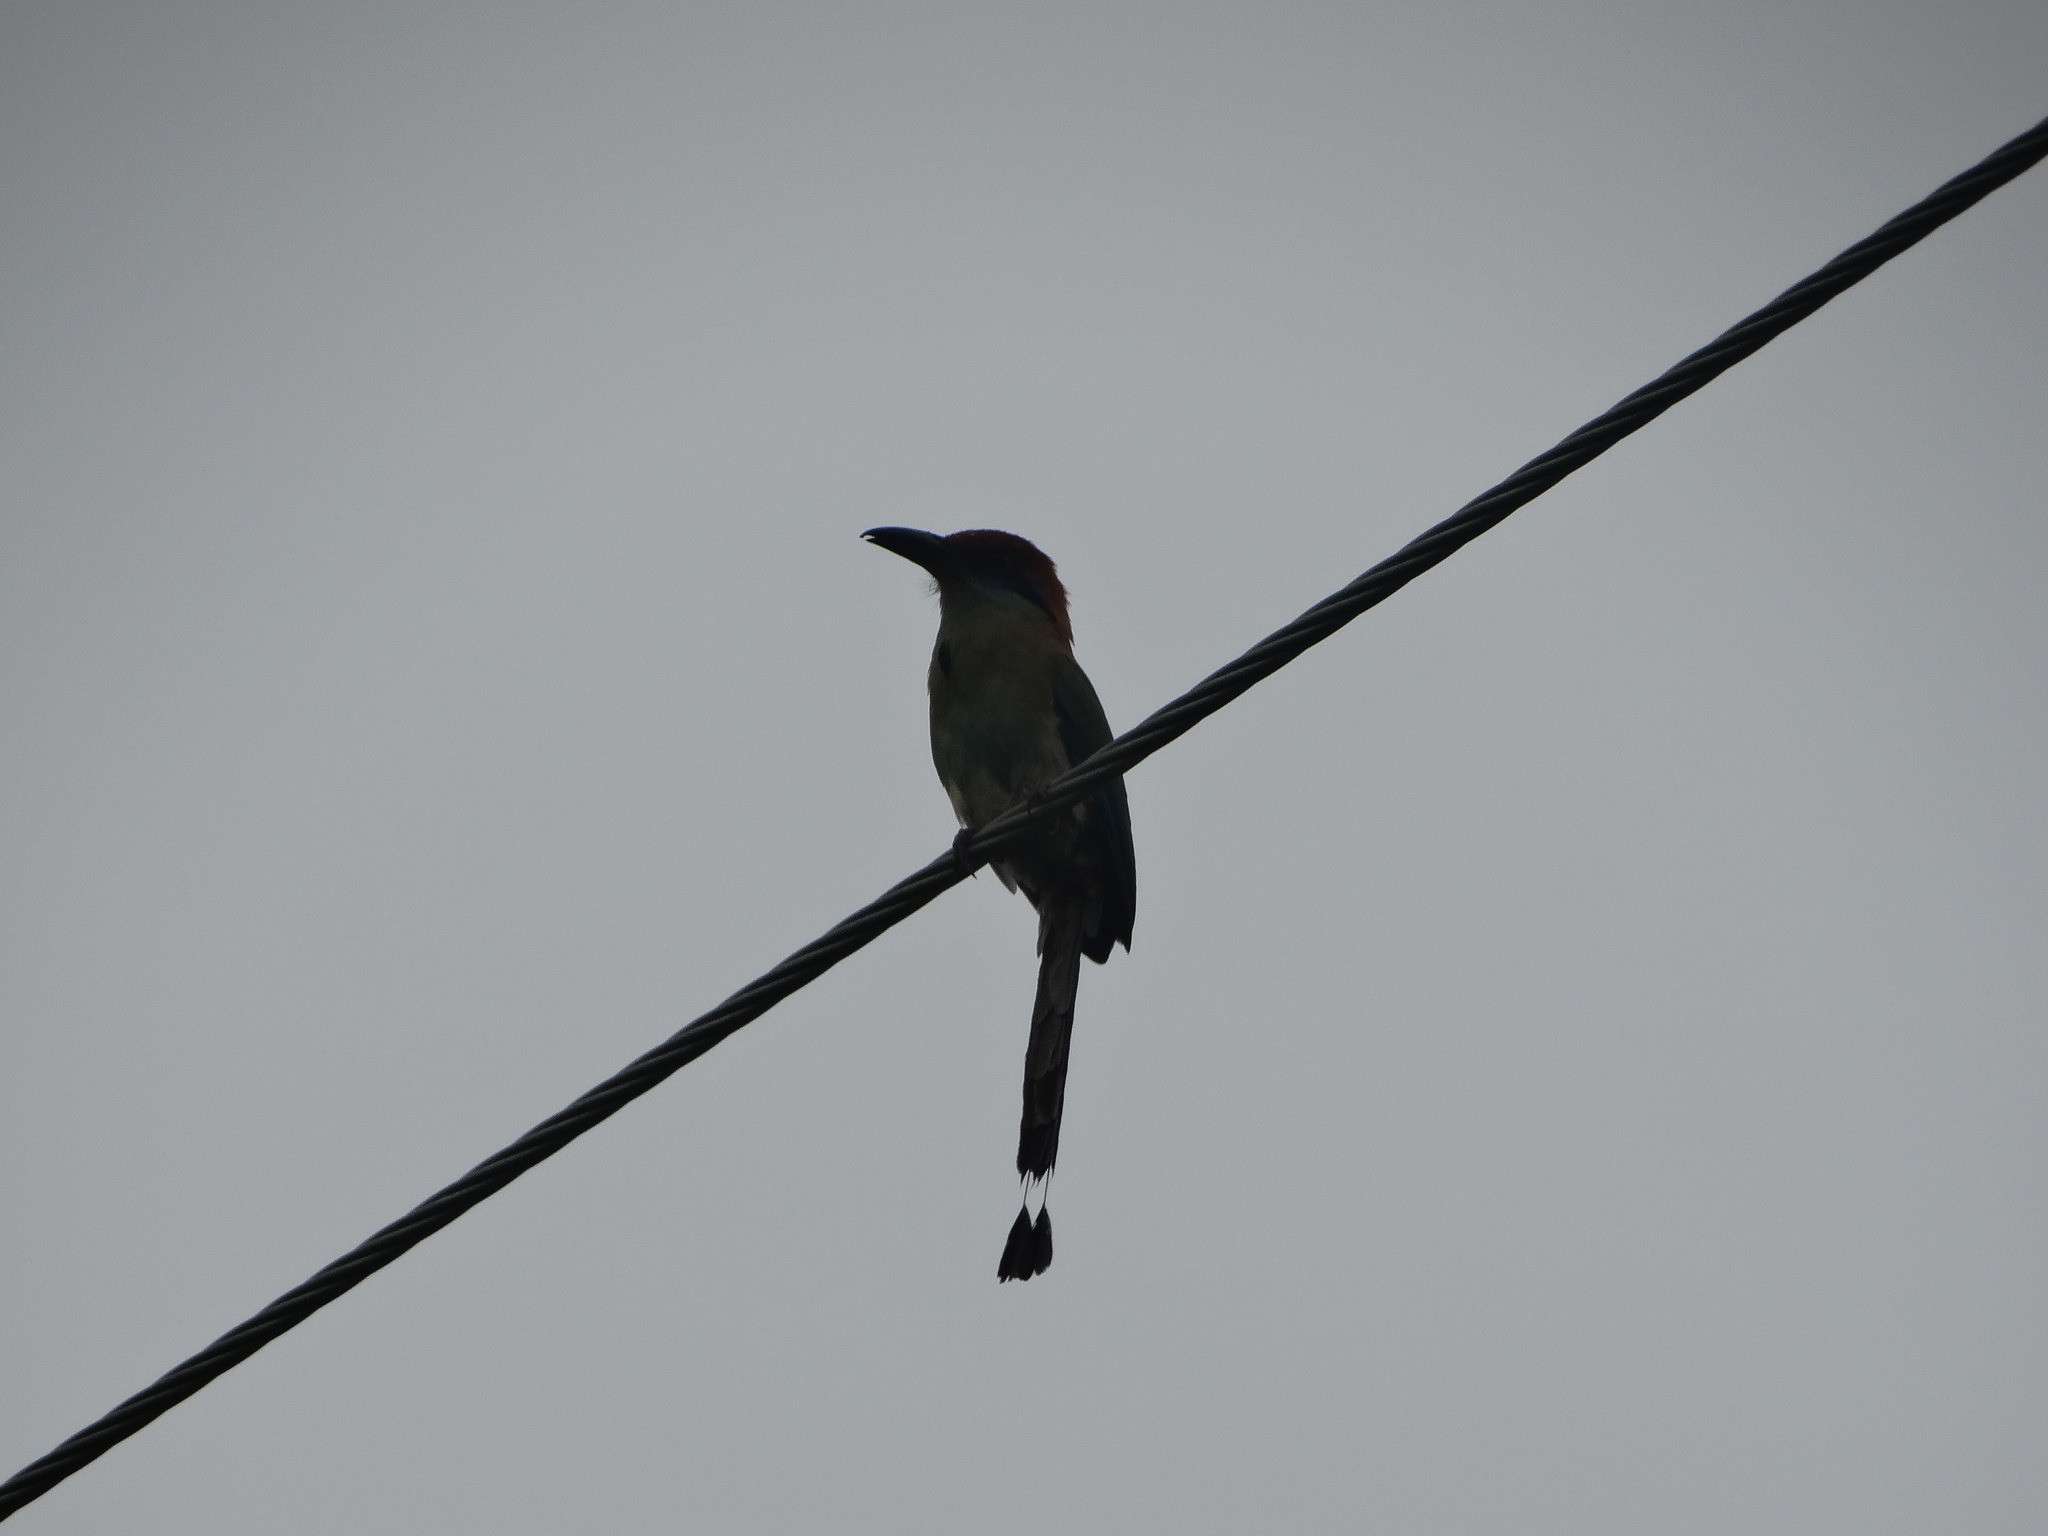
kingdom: Animalia
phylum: Chordata
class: Aves
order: Coraciiformes
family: Momotidae
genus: Momotus
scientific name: Momotus mexicanus
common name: Russet-crowned motmot
